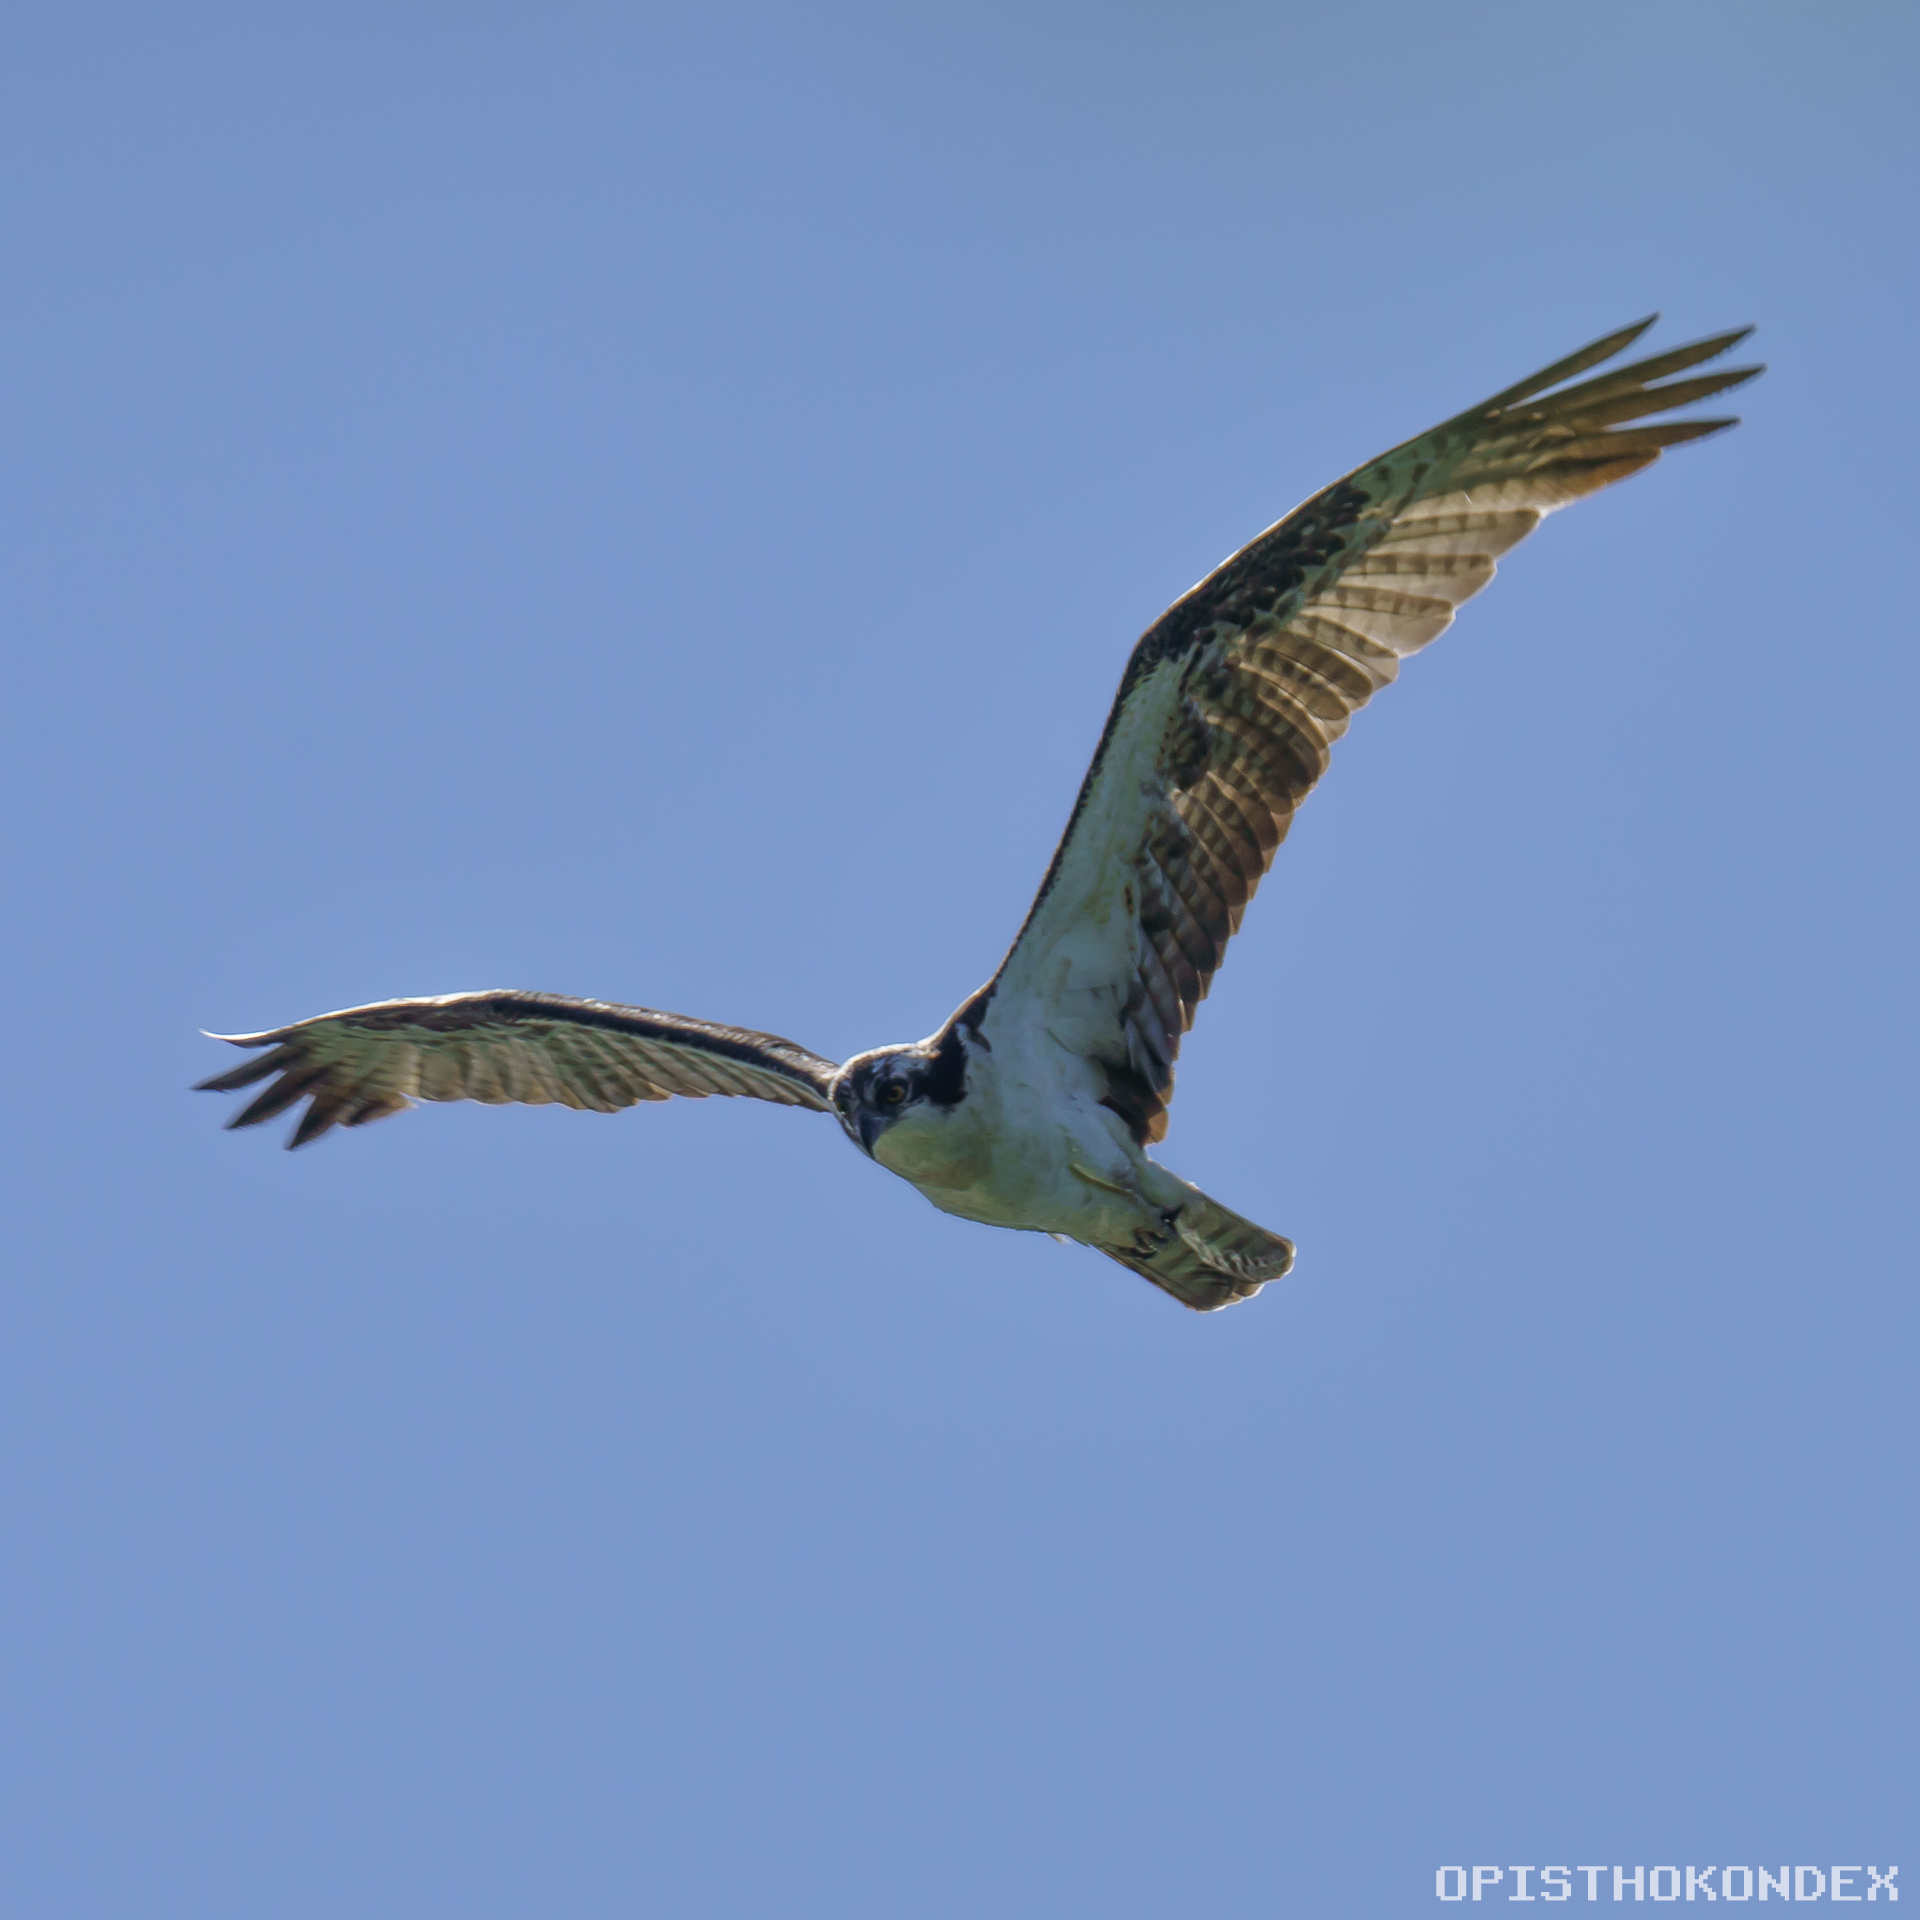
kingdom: Animalia
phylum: Chordata
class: Aves
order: Accipitriformes
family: Pandionidae
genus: Pandion
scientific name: Pandion haliaetus
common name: Osprey
